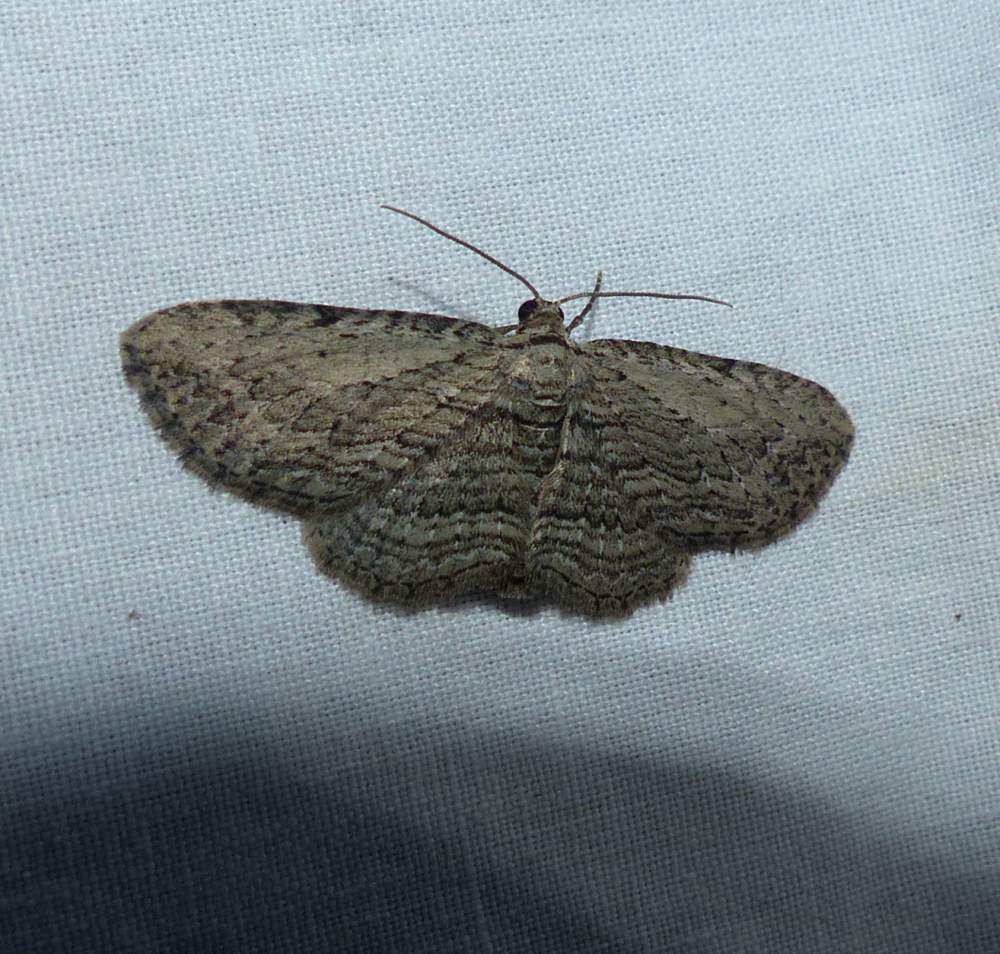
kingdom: Animalia
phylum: Arthropoda
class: Insecta
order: Lepidoptera
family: Geometridae
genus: Horisme
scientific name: Horisme intestinata
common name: Brown bark carpet
